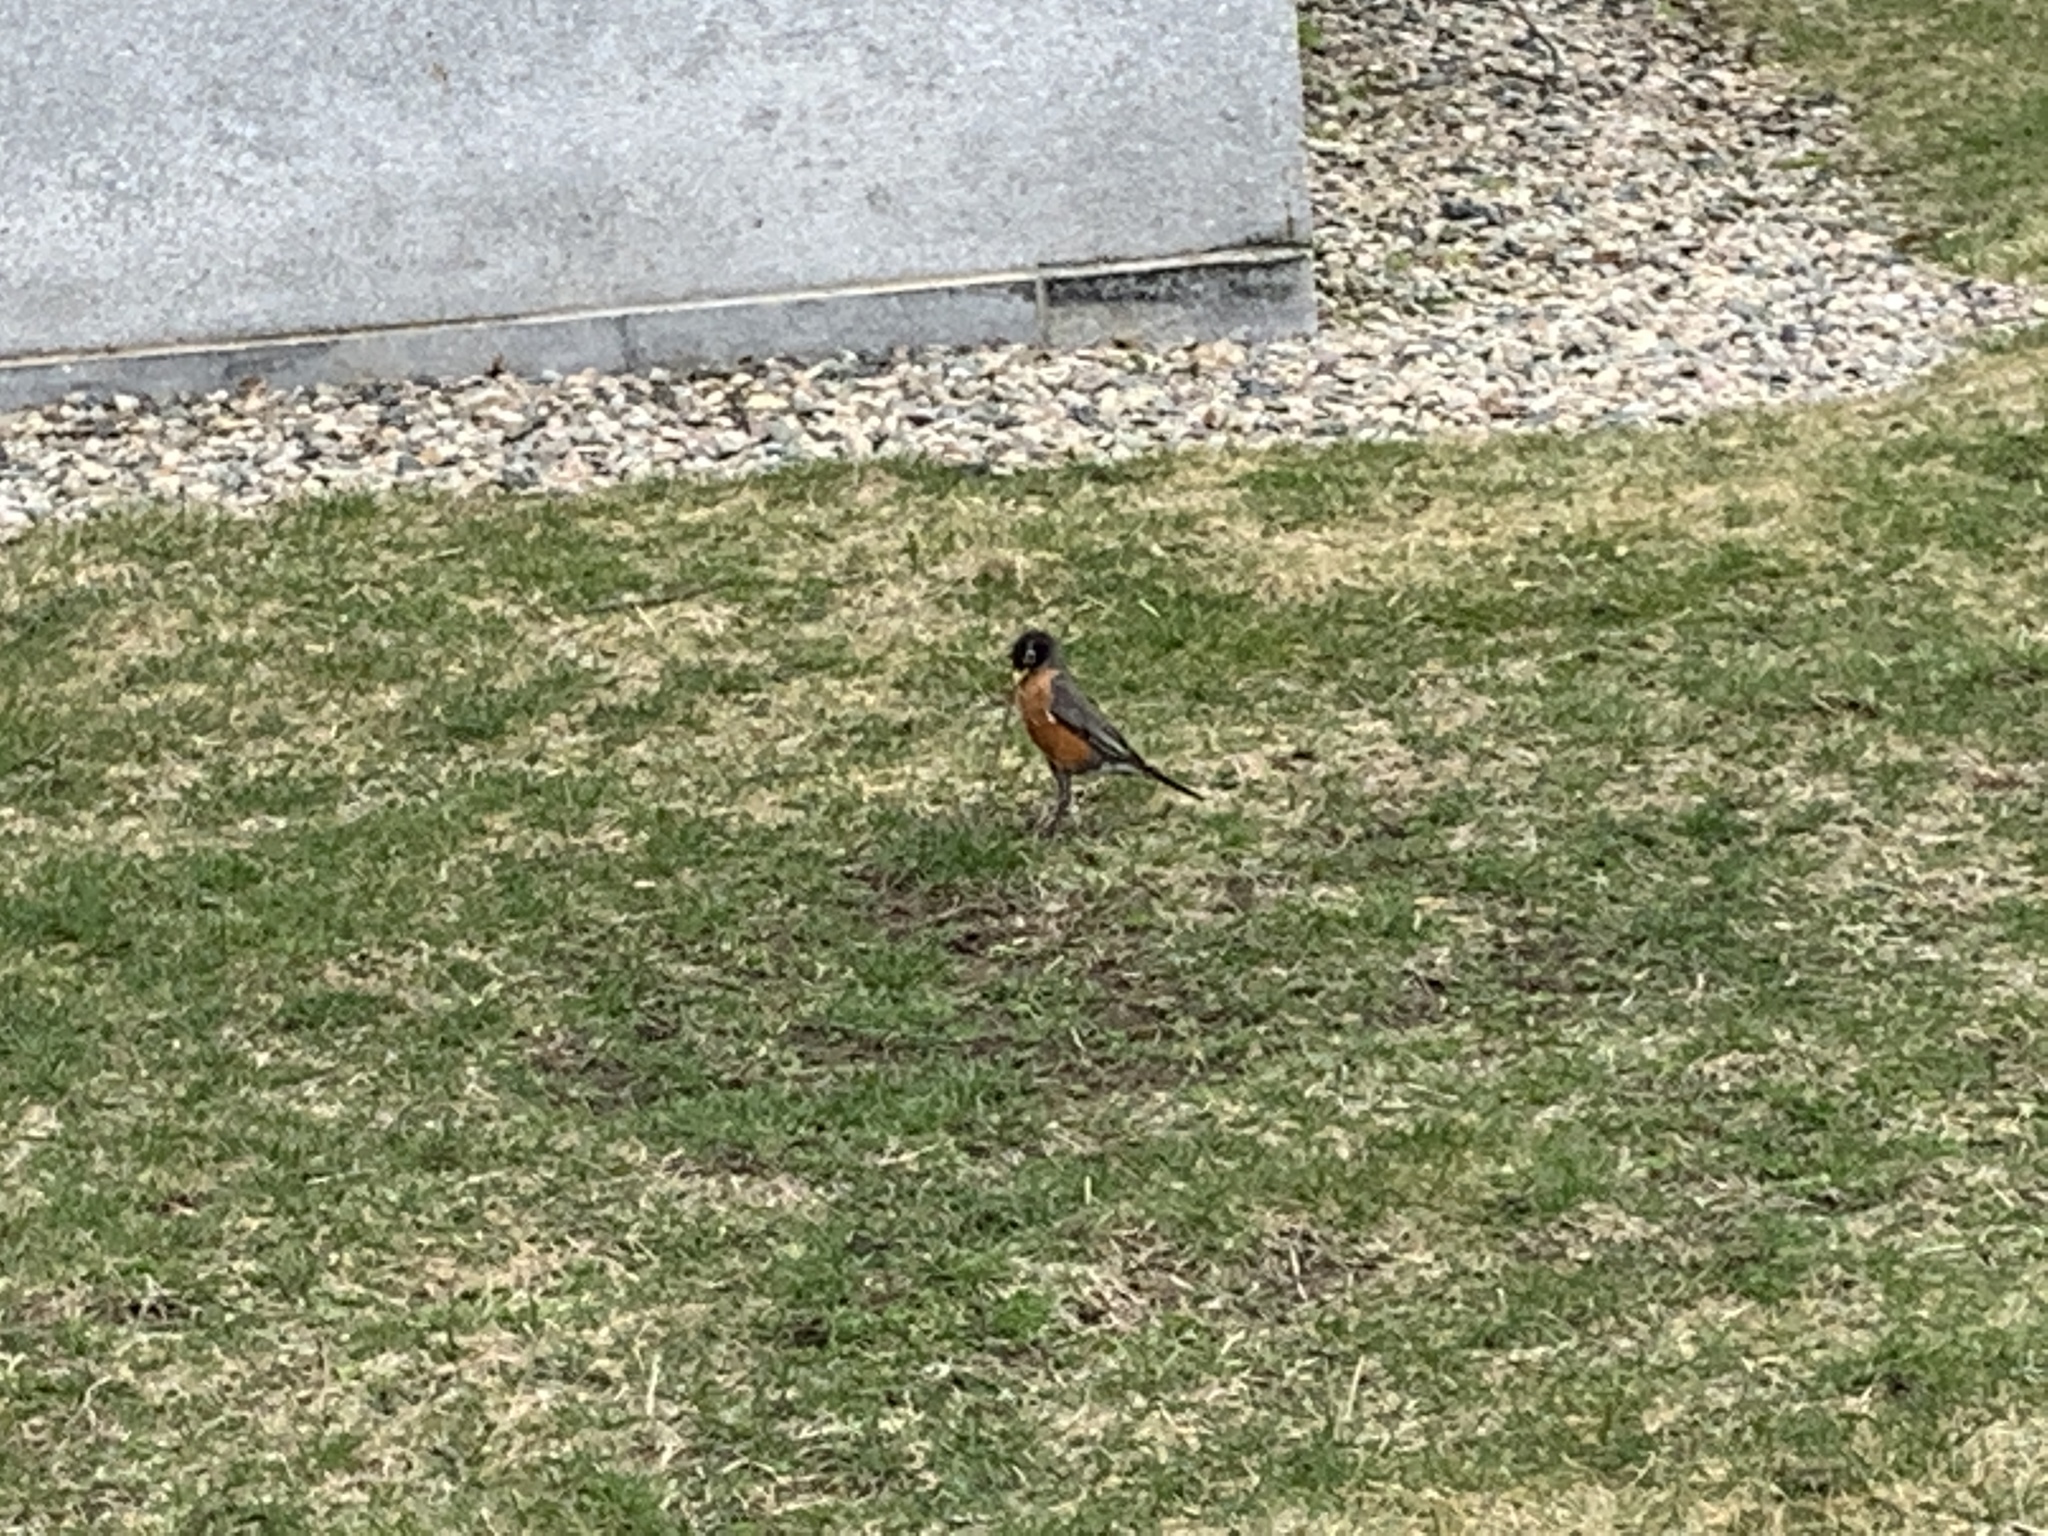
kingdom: Animalia
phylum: Chordata
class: Aves
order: Passeriformes
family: Turdidae
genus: Turdus
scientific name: Turdus migratorius
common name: American robin
